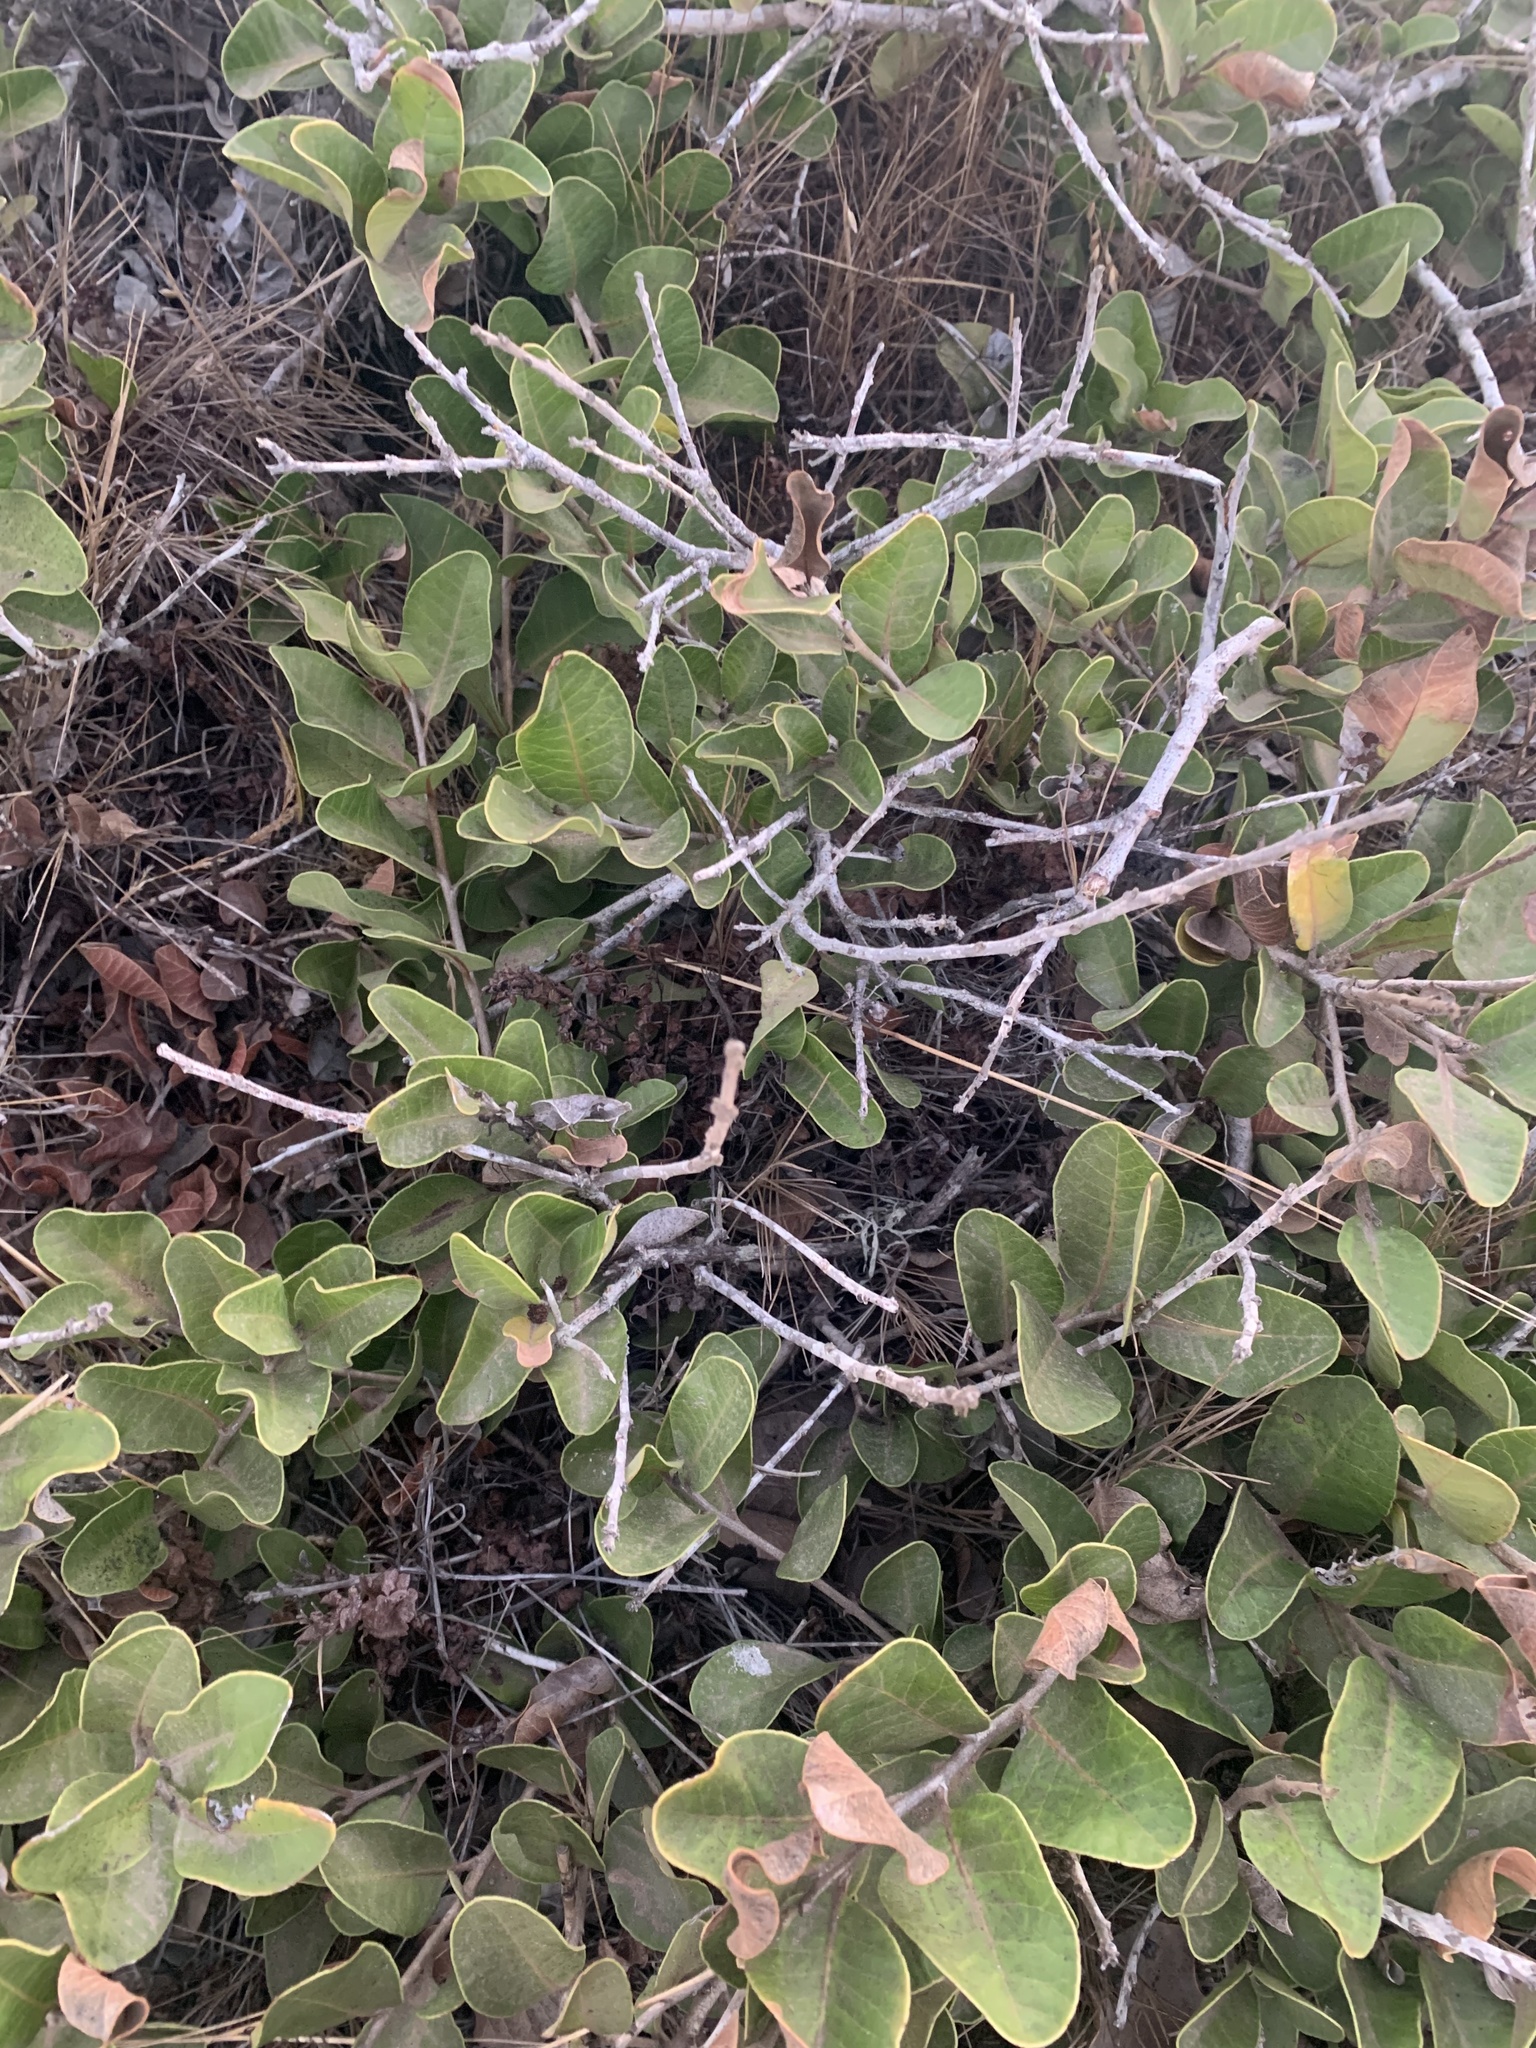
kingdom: Plantae
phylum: Tracheophyta
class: Magnoliopsida
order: Sapindales
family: Anacardiaceae
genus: Lithraea
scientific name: Lithraea caustica
